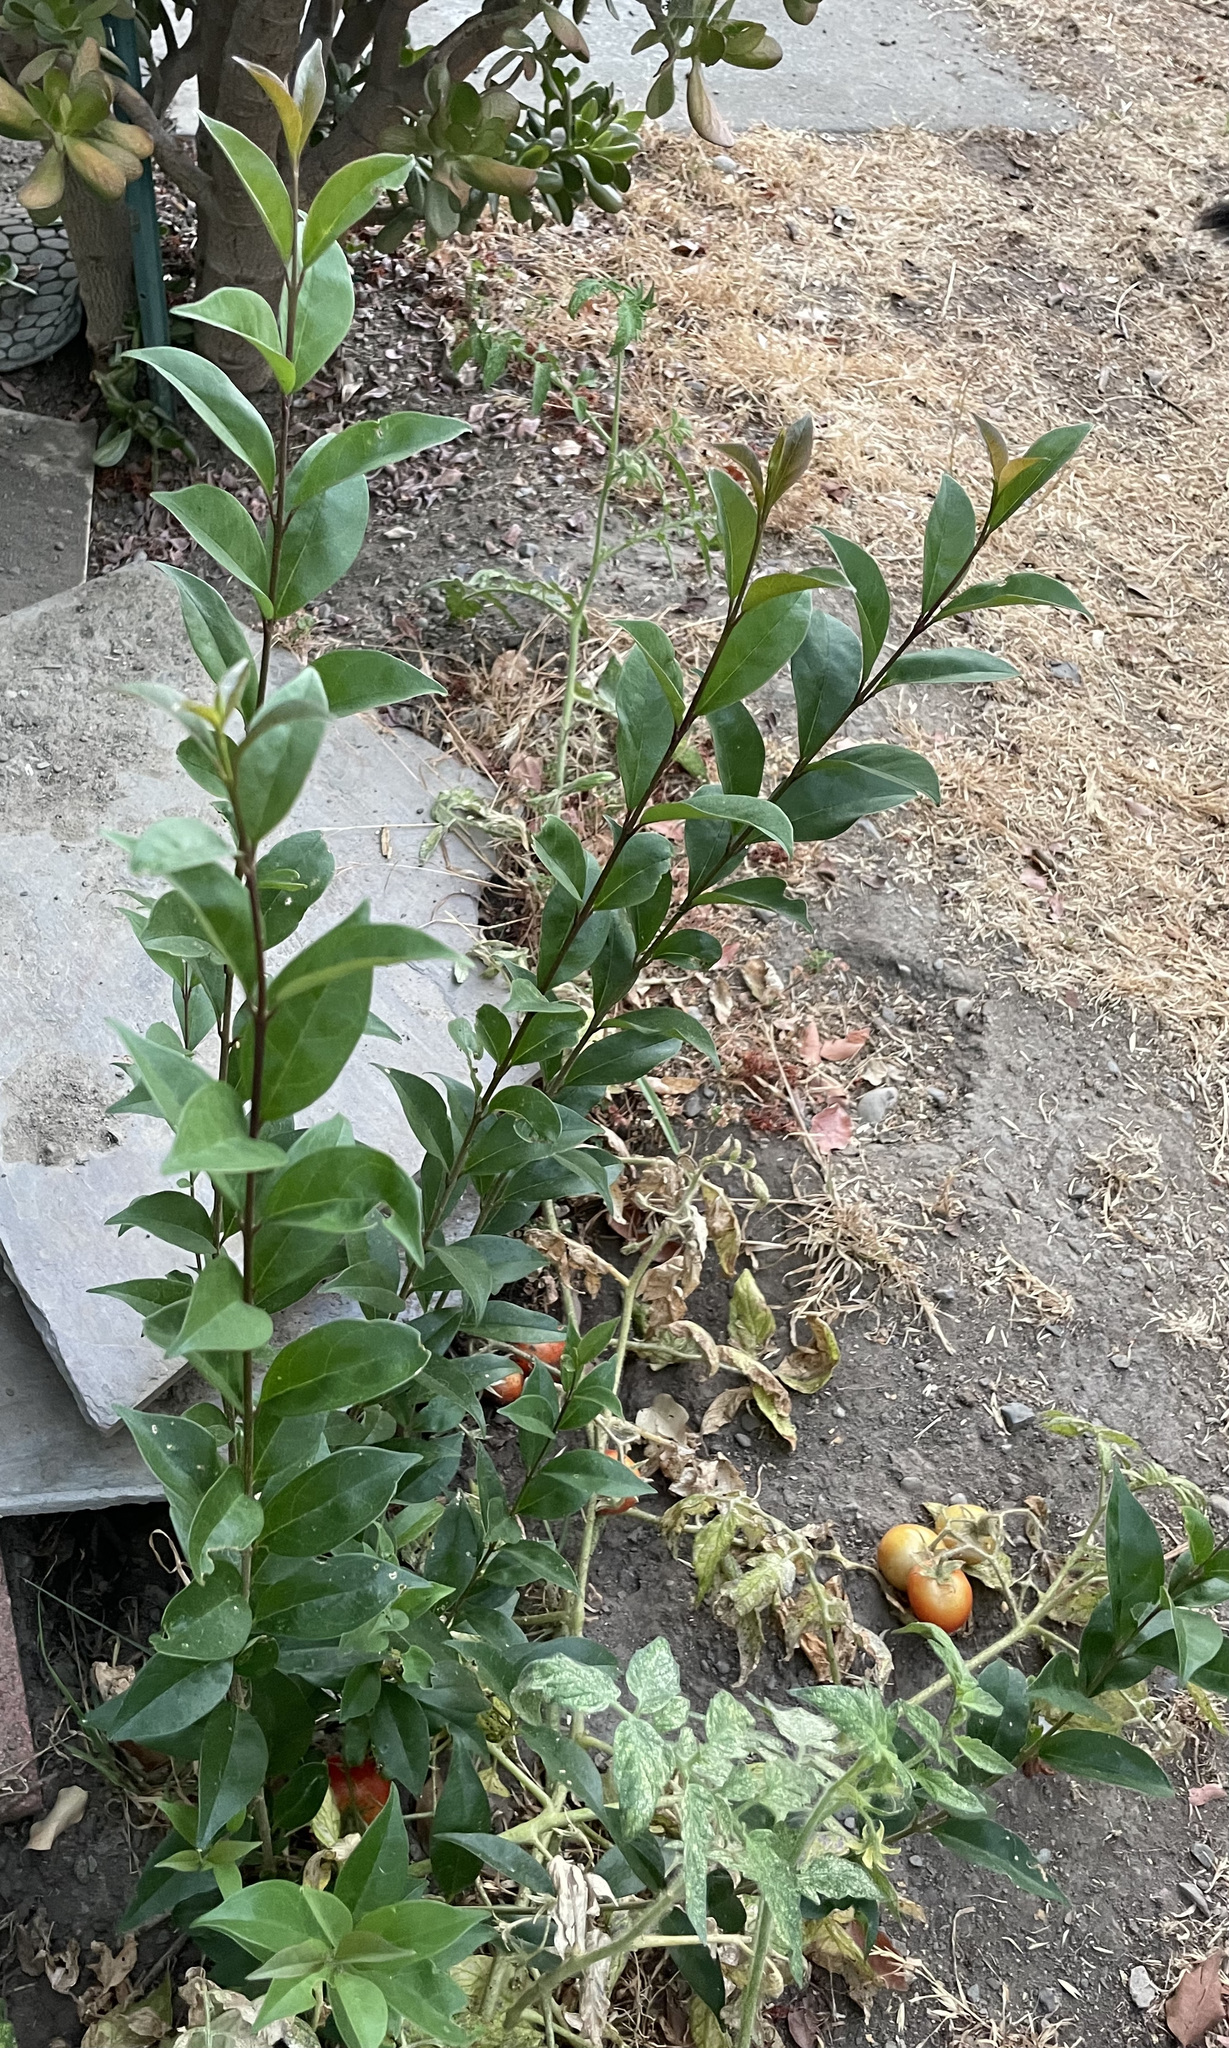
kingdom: Plantae
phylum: Tracheophyta
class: Magnoliopsida
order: Lamiales
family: Oleaceae
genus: Ligustrum
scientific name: Ligustrum lucidum
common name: Glossy privet
